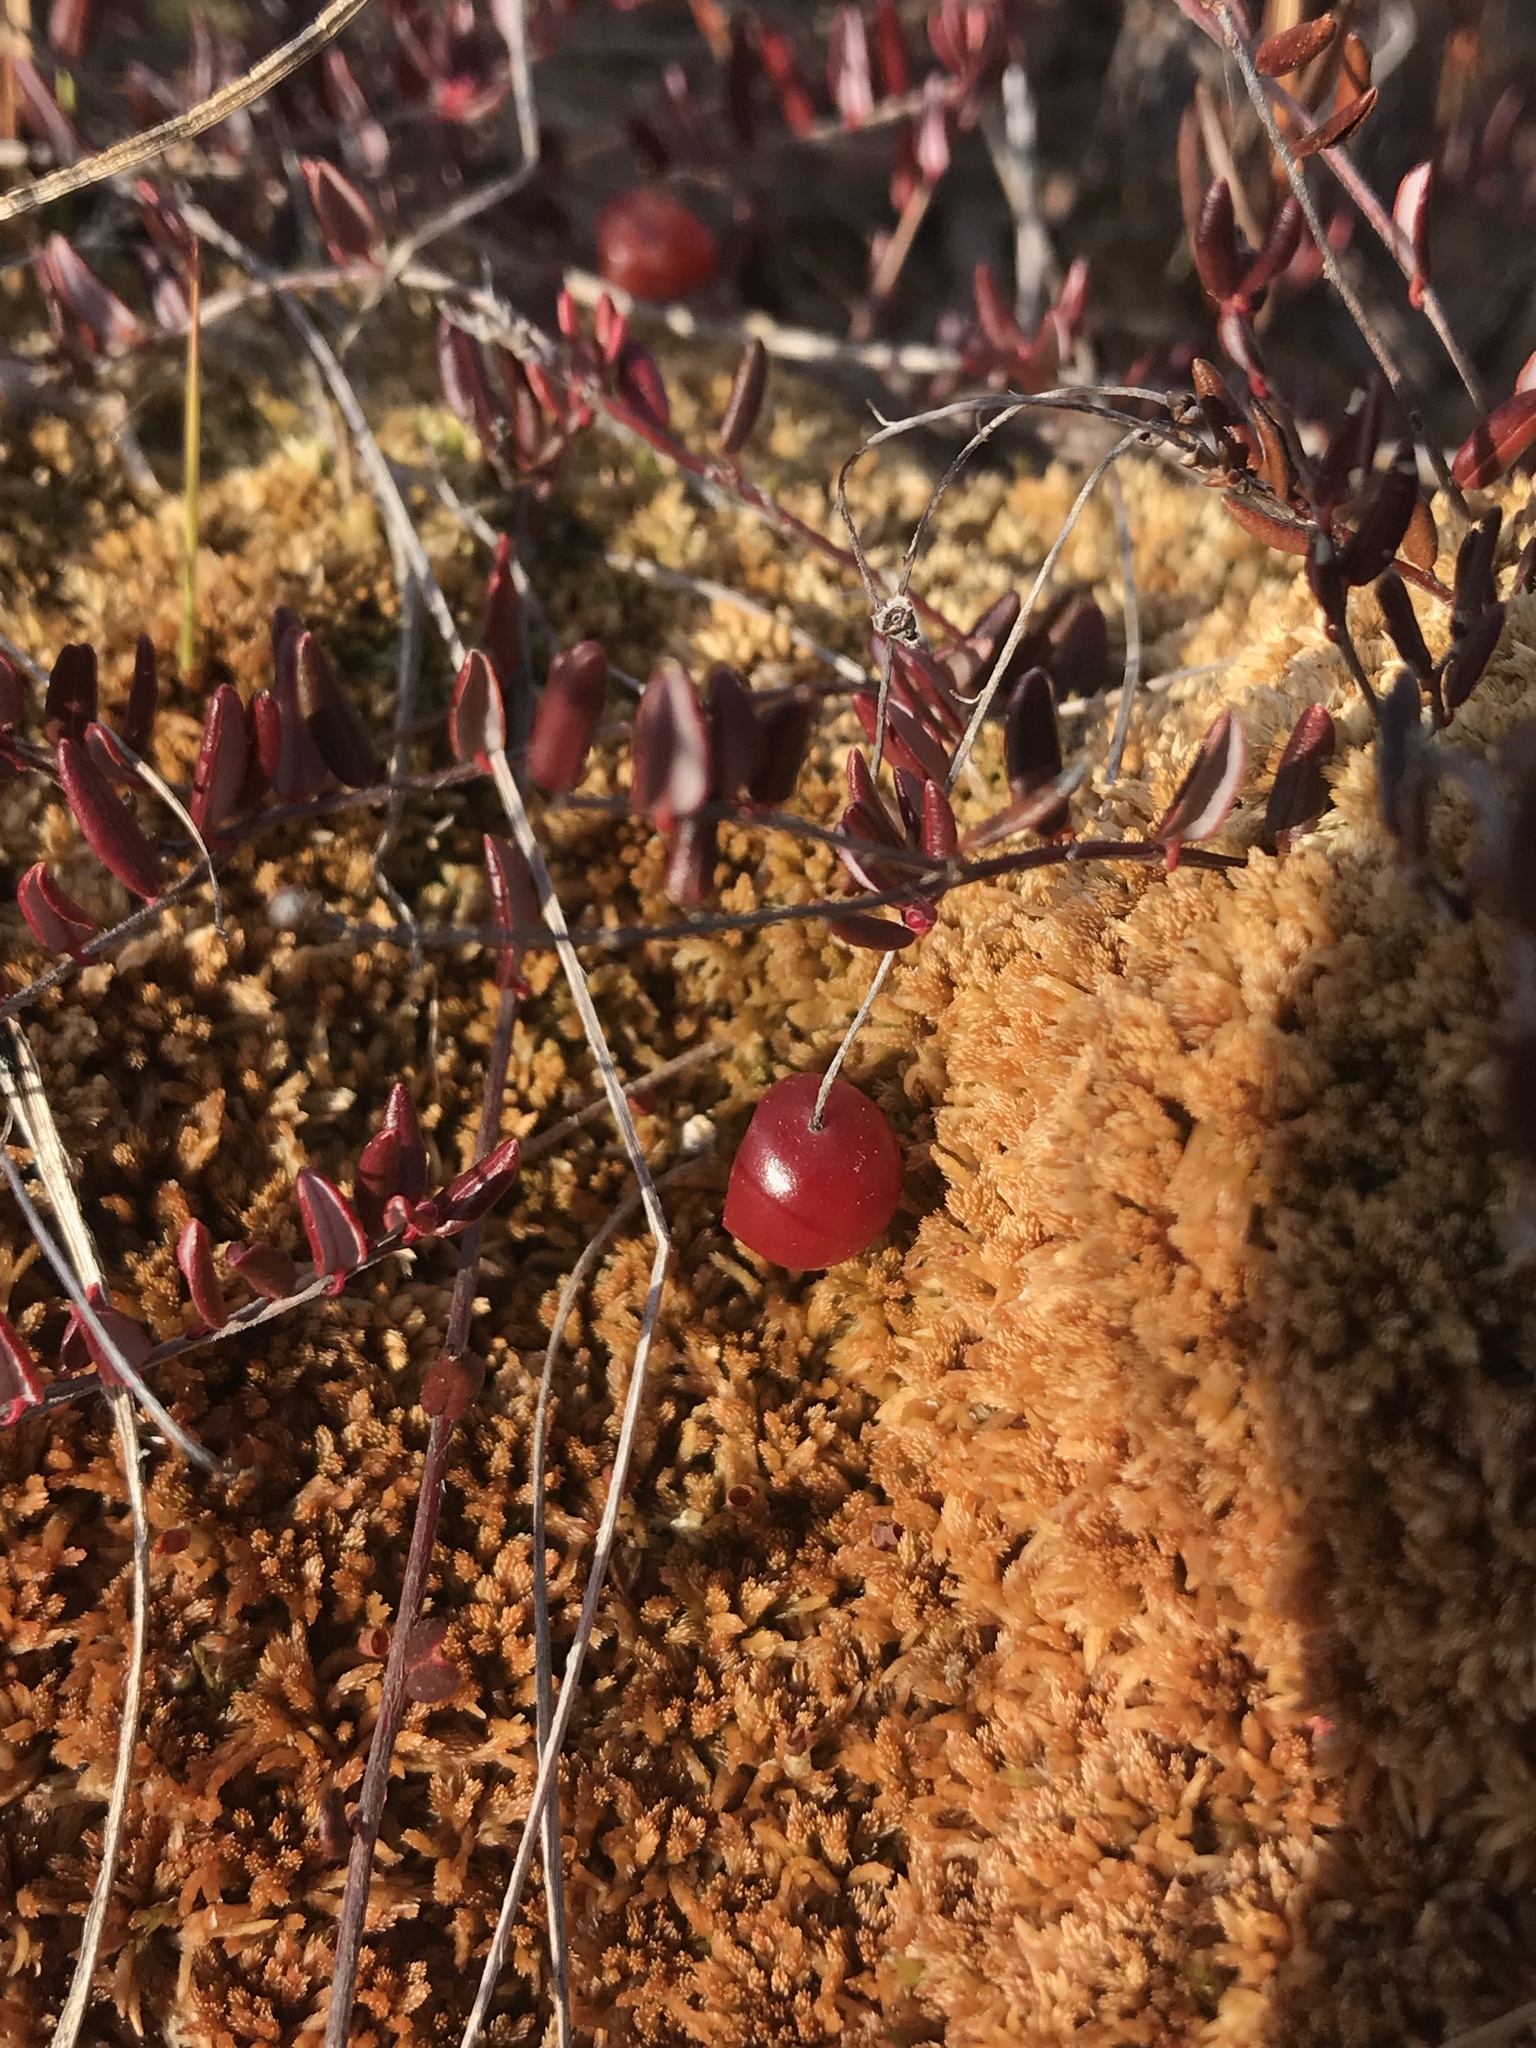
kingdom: Plantae
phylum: Tracheophyta
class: Magnoliopsida
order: Ericales
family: Ericaceae
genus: Vaccinium
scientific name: Vaccinium oxycoccos
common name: Cranberry
